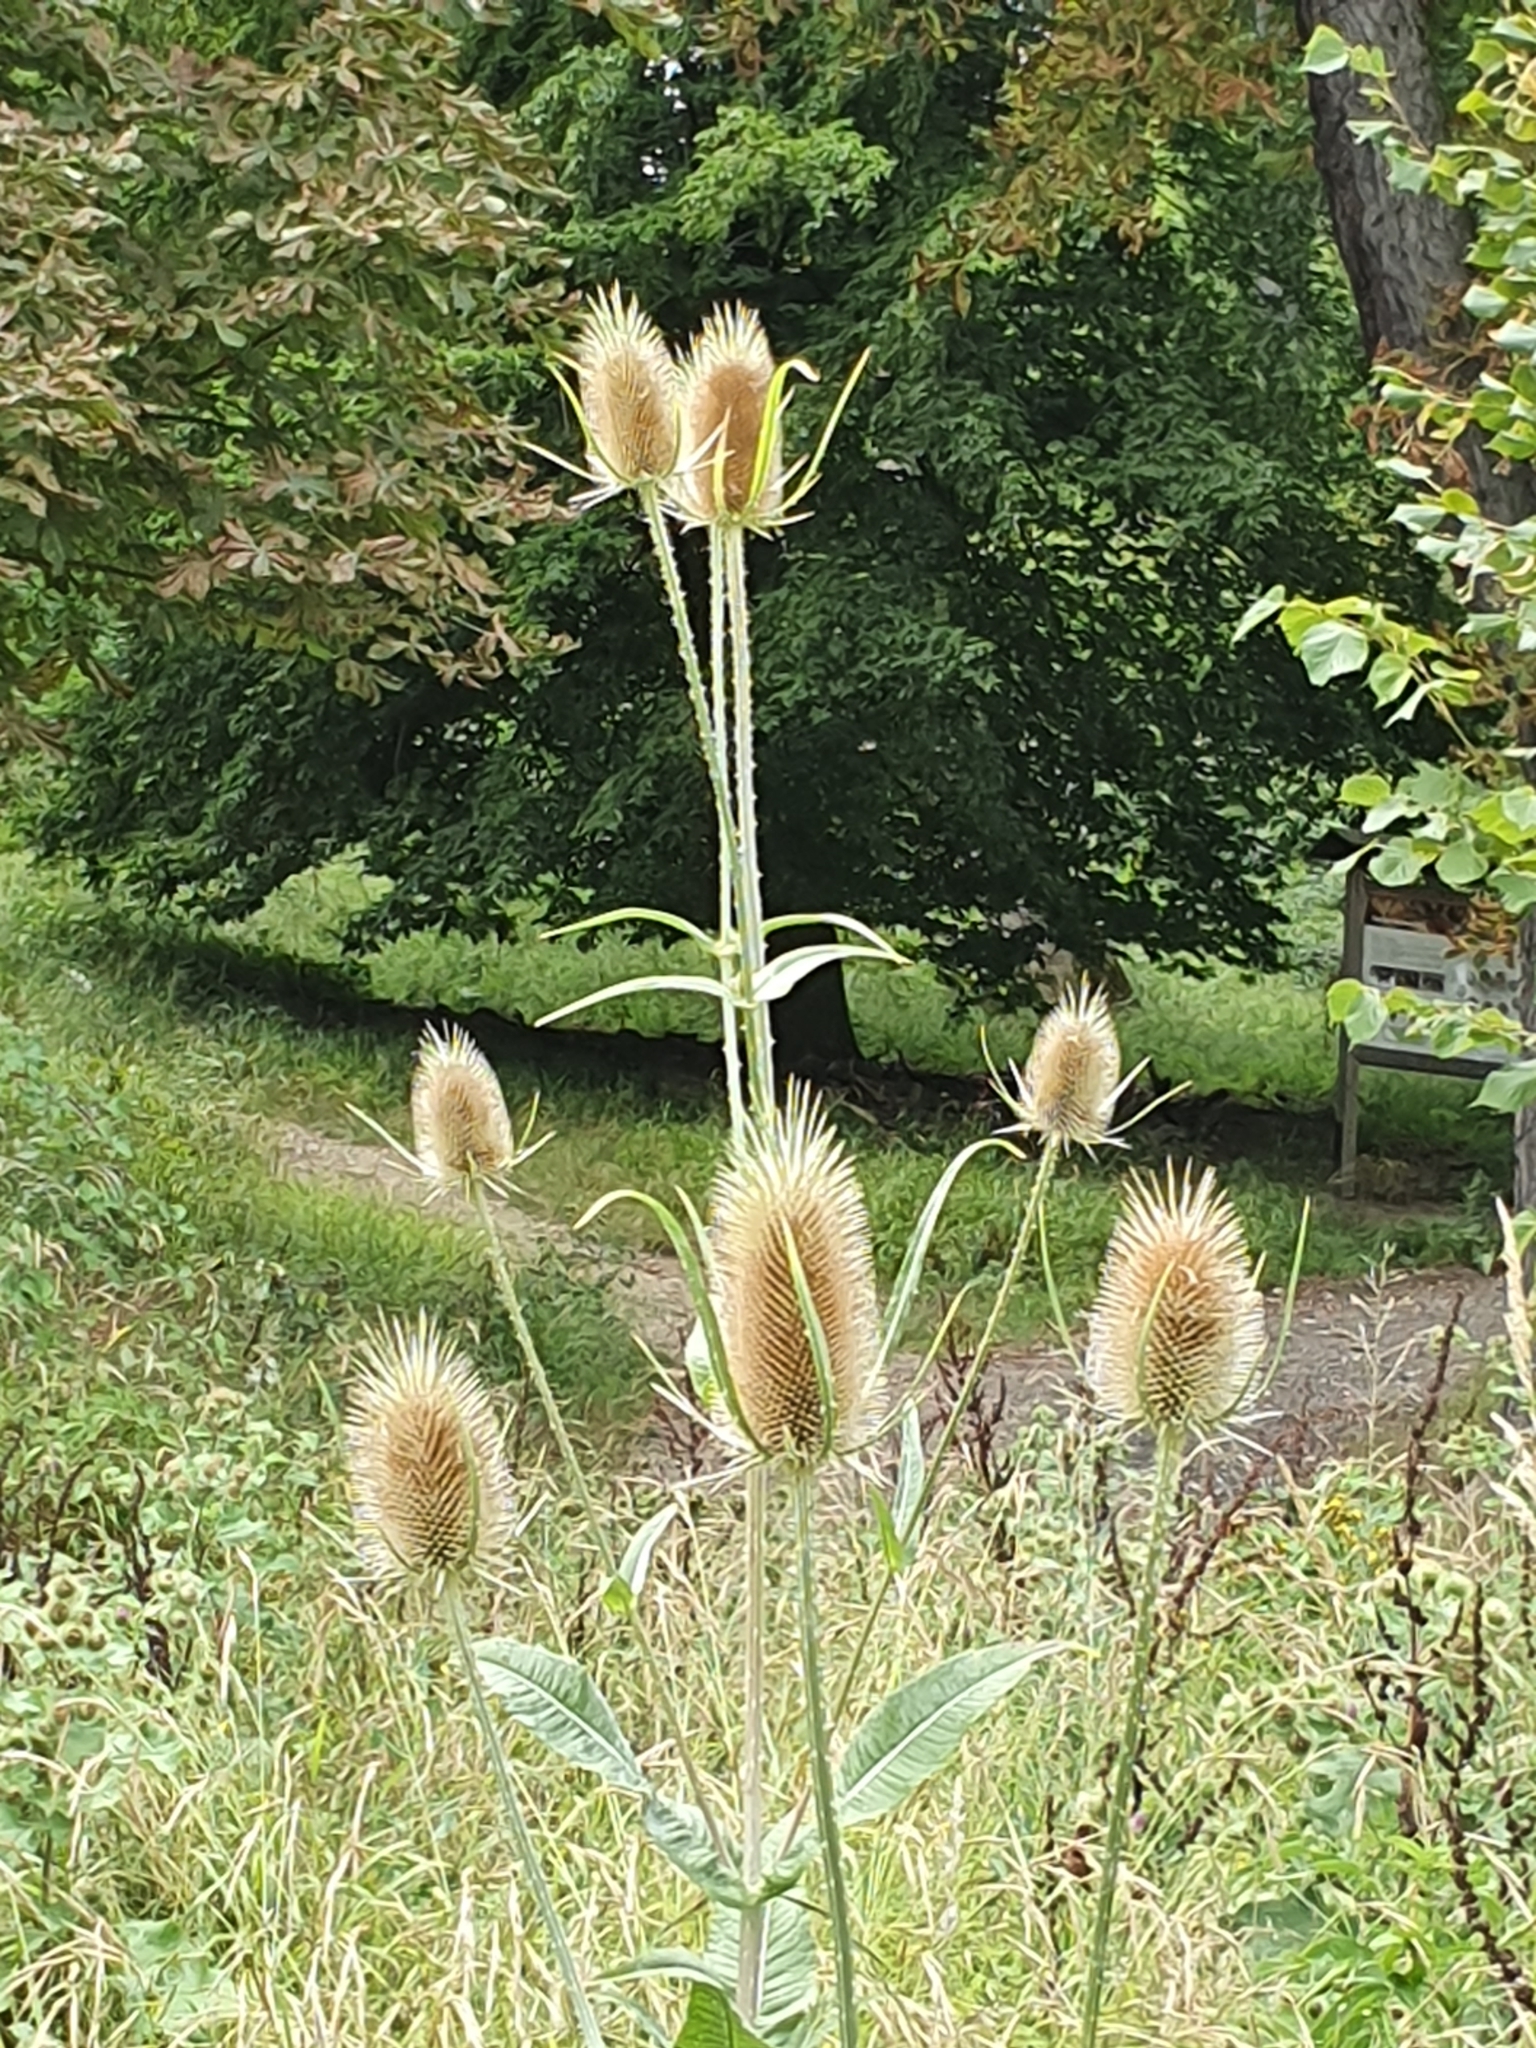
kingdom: Plantae
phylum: Tracheophyta
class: Magnoliopsida
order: Dipsacales
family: Caprifoliaceae
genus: Dipsacus
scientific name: Dipsacus fullonum
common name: Teasel
